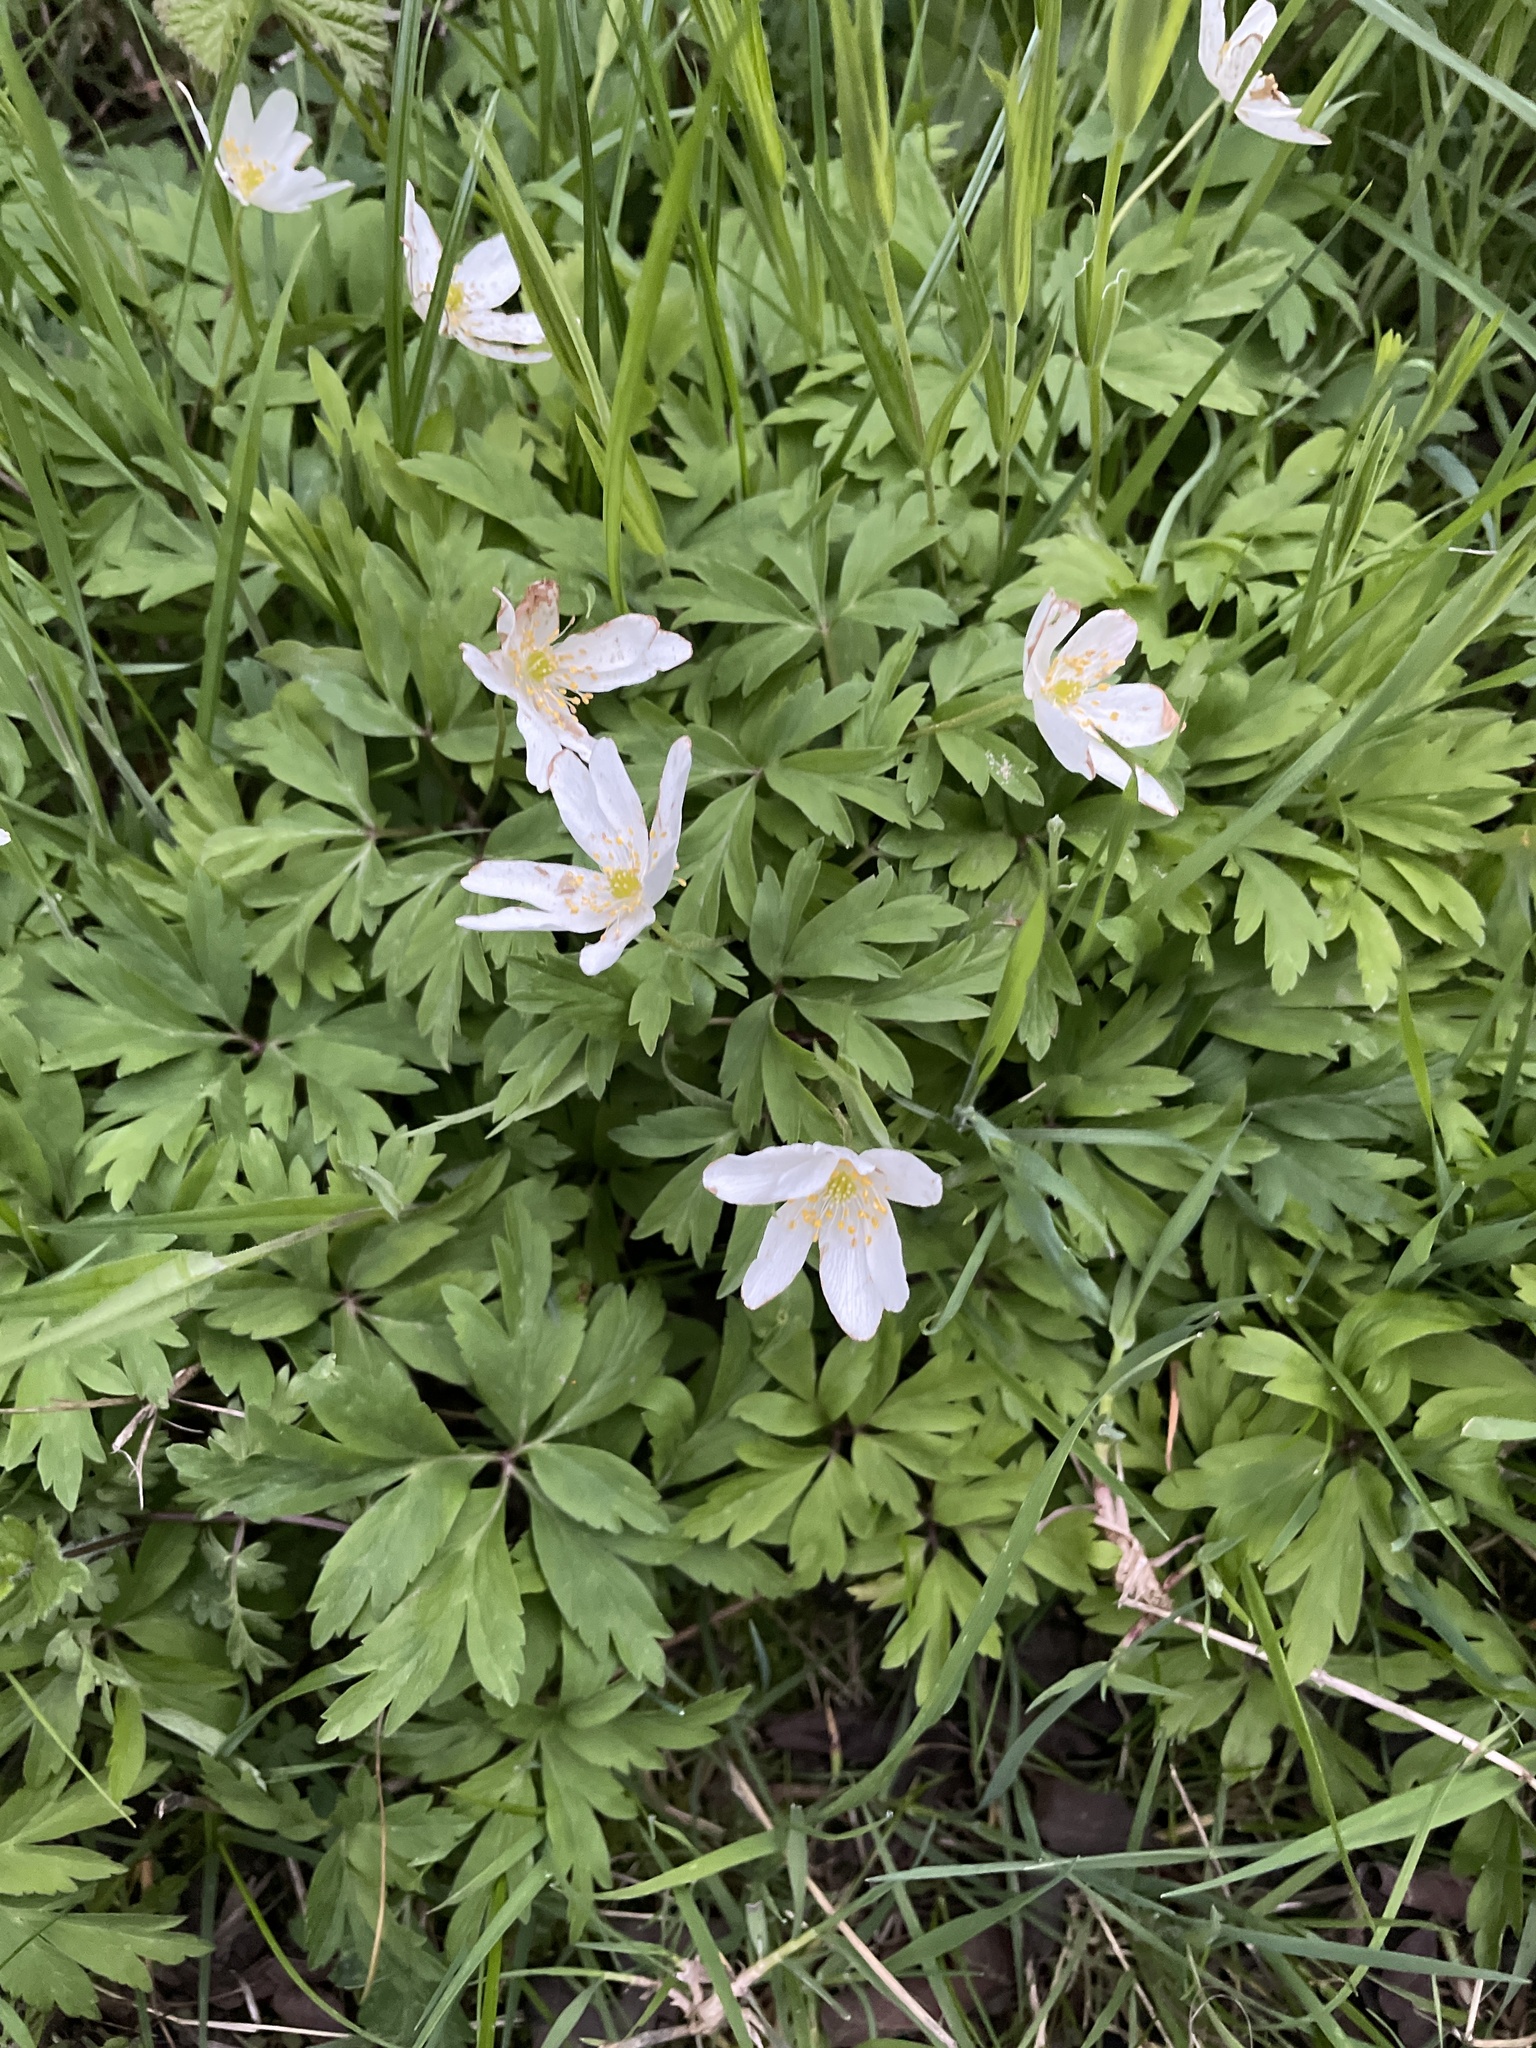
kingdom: Plantae
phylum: Tracheophyta
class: Magnoliopsida
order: Ranunculales
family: Ranunculaceae
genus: Anemone
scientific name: Anemone nemorosa
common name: Wood anemone
